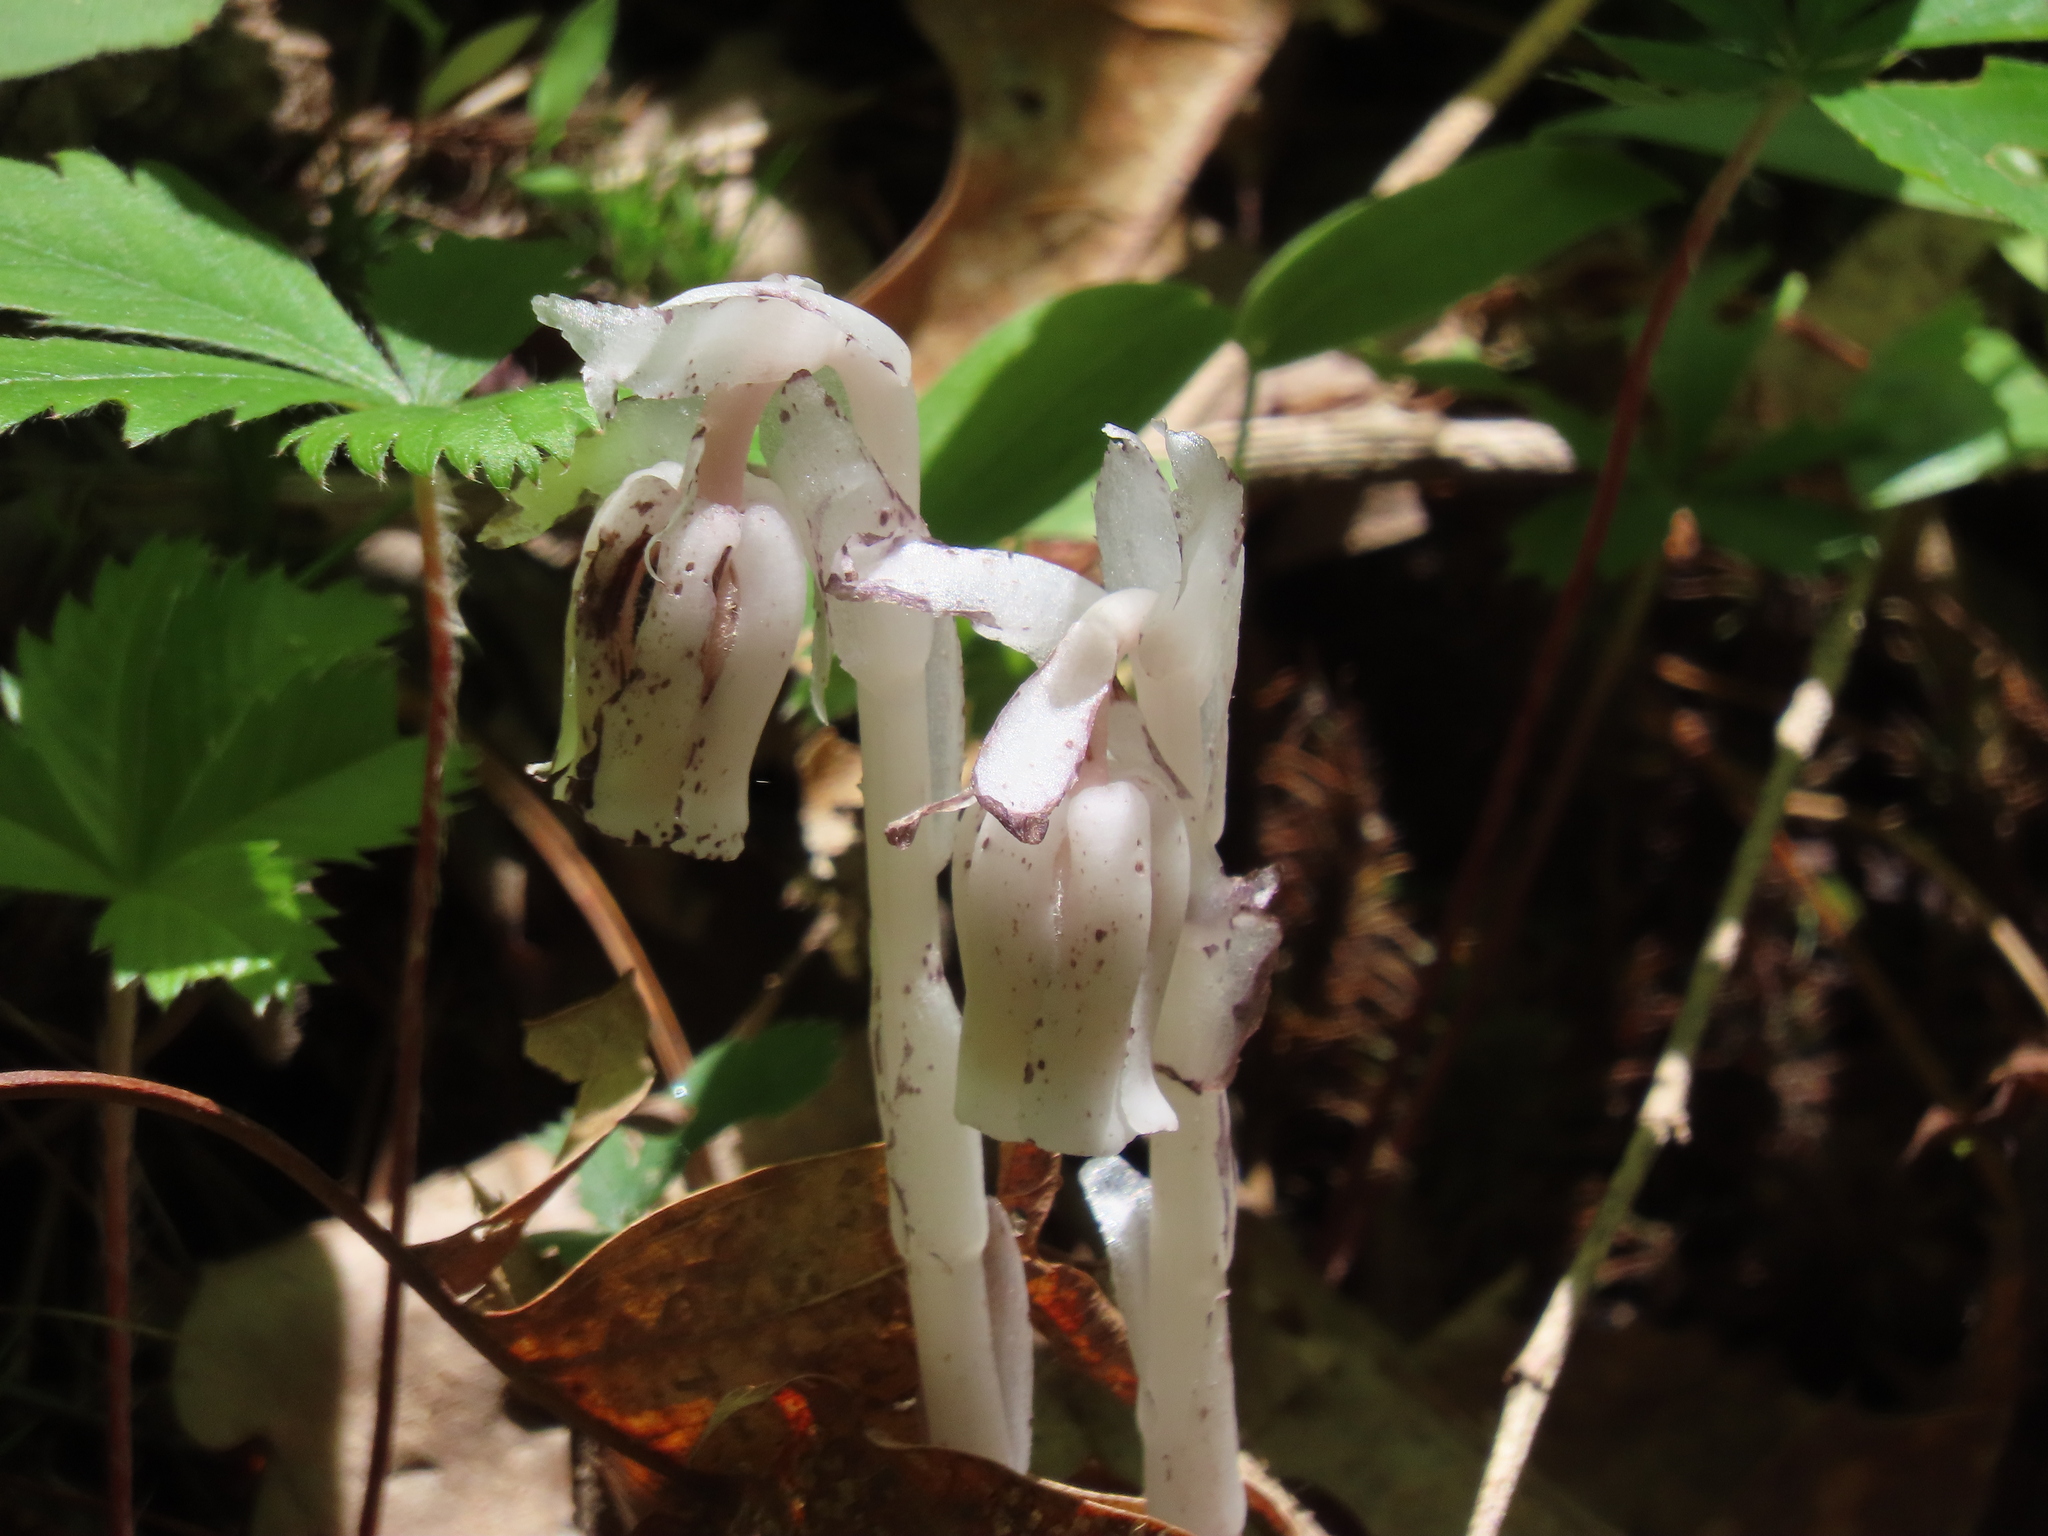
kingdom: Plantae
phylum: Tracheophyta
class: Magnoliopsida
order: Ericales
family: Ericaceae
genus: Monotropa
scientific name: Monotropa uniflora
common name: Convulsion root
